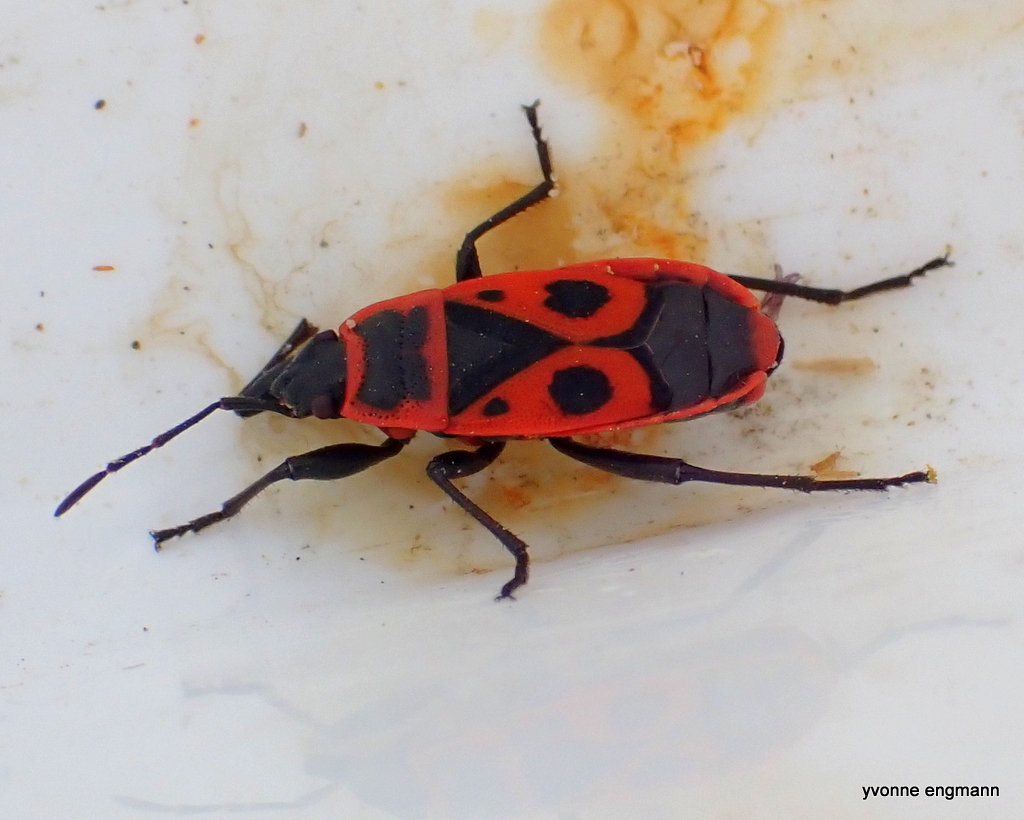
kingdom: Animalia
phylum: Arthropoda
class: Insecta
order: Hemiptera
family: Pyrrhocoridae
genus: Pyrrhocoris
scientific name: Pyrrhocoris apterus
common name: Firebug
